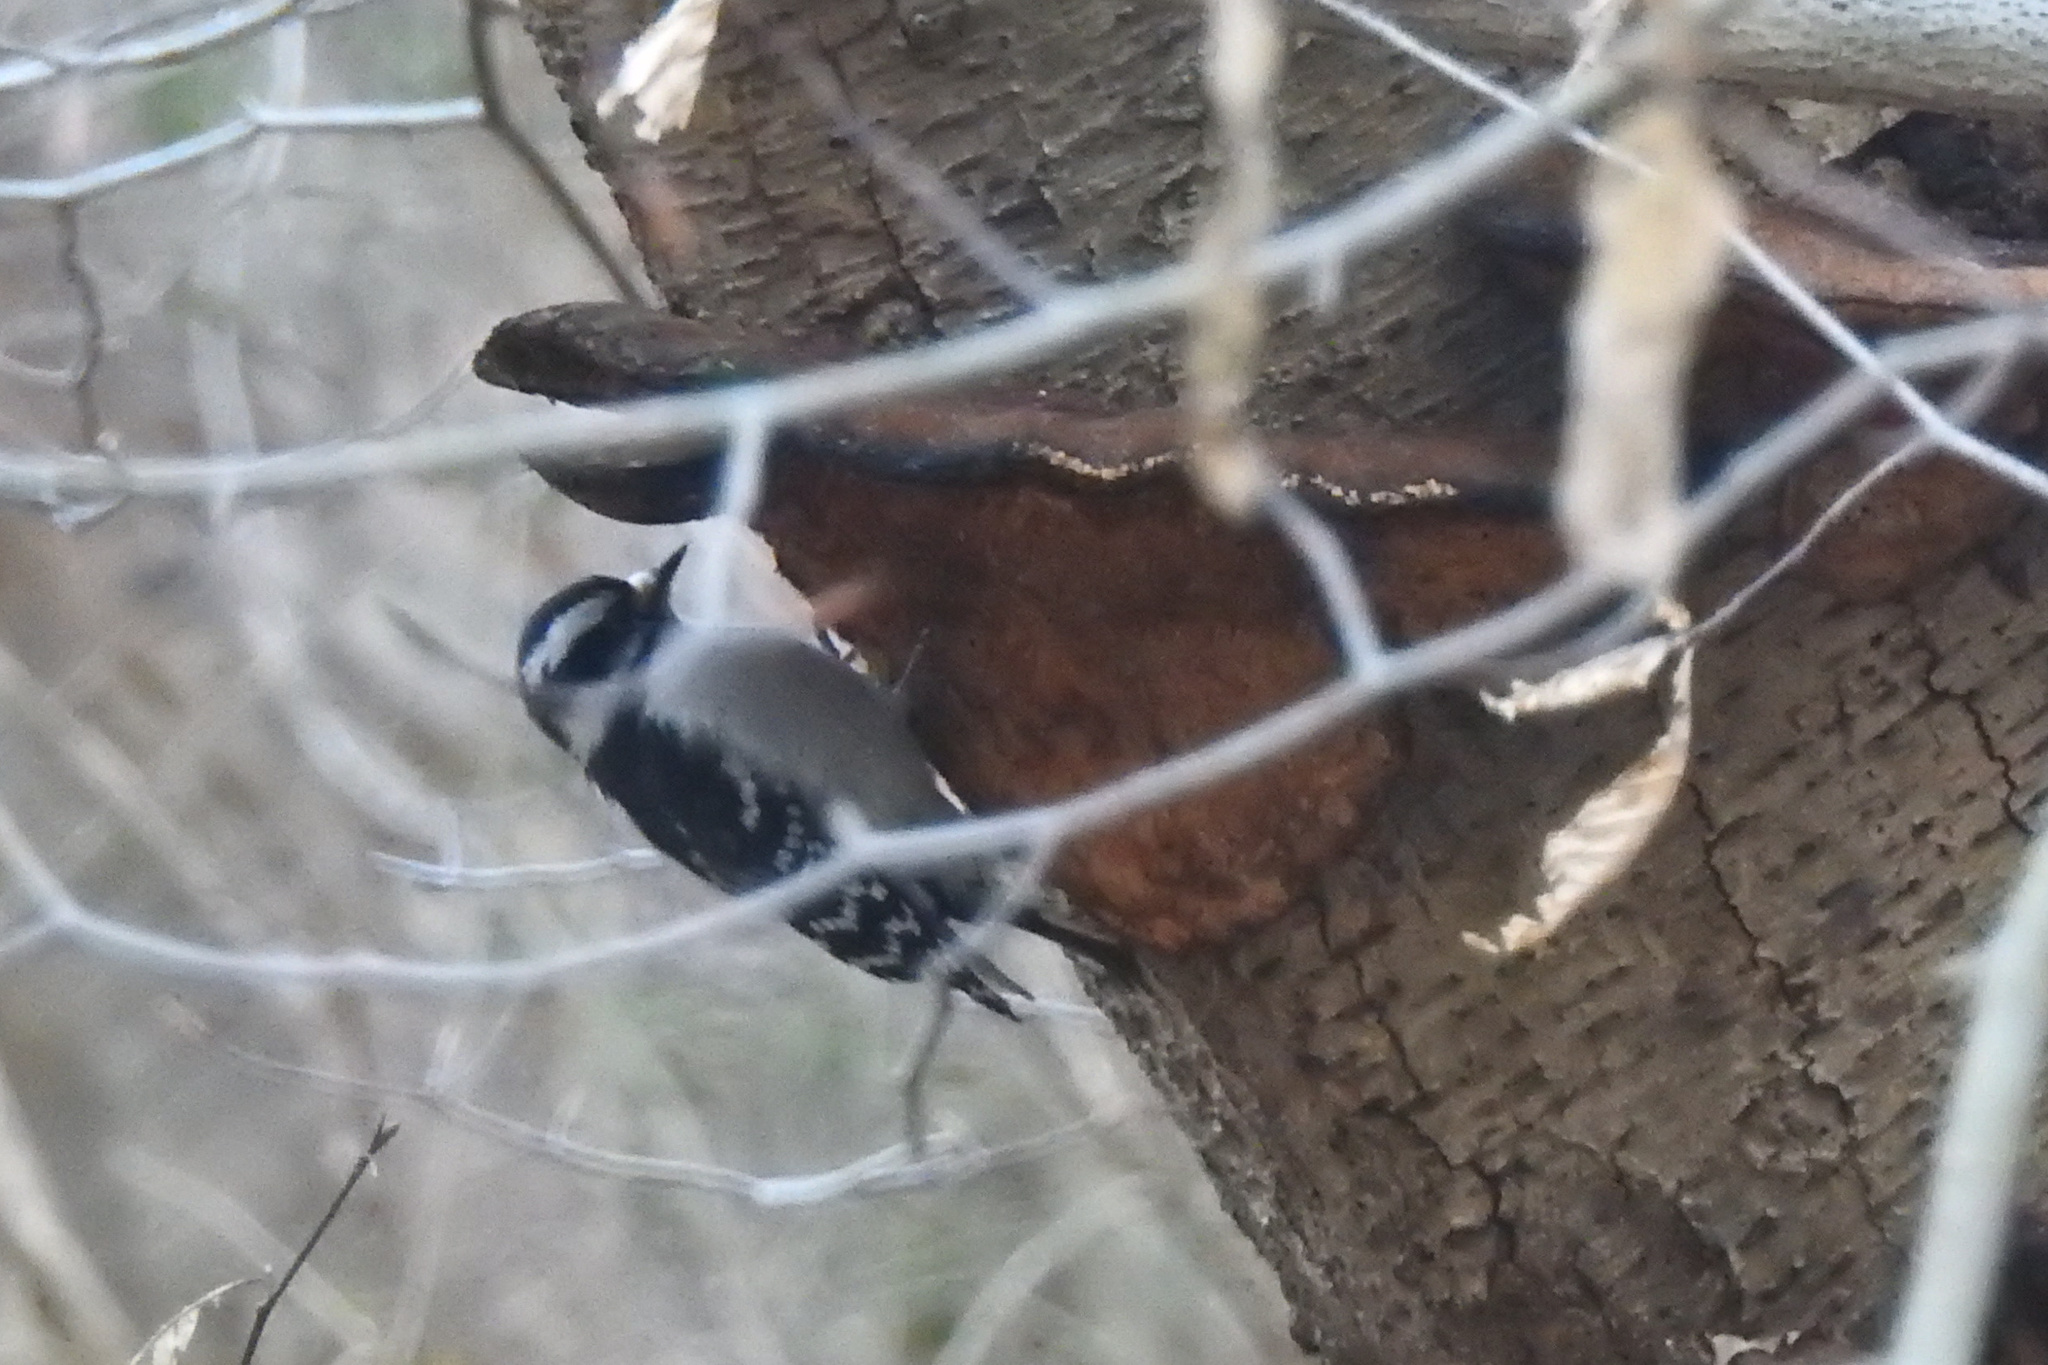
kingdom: Animalia
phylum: Chordata
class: Aves
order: Piciformes
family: Picidae
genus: Dryobates
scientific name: Dryobates pubescens
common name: Downy woodpecker
